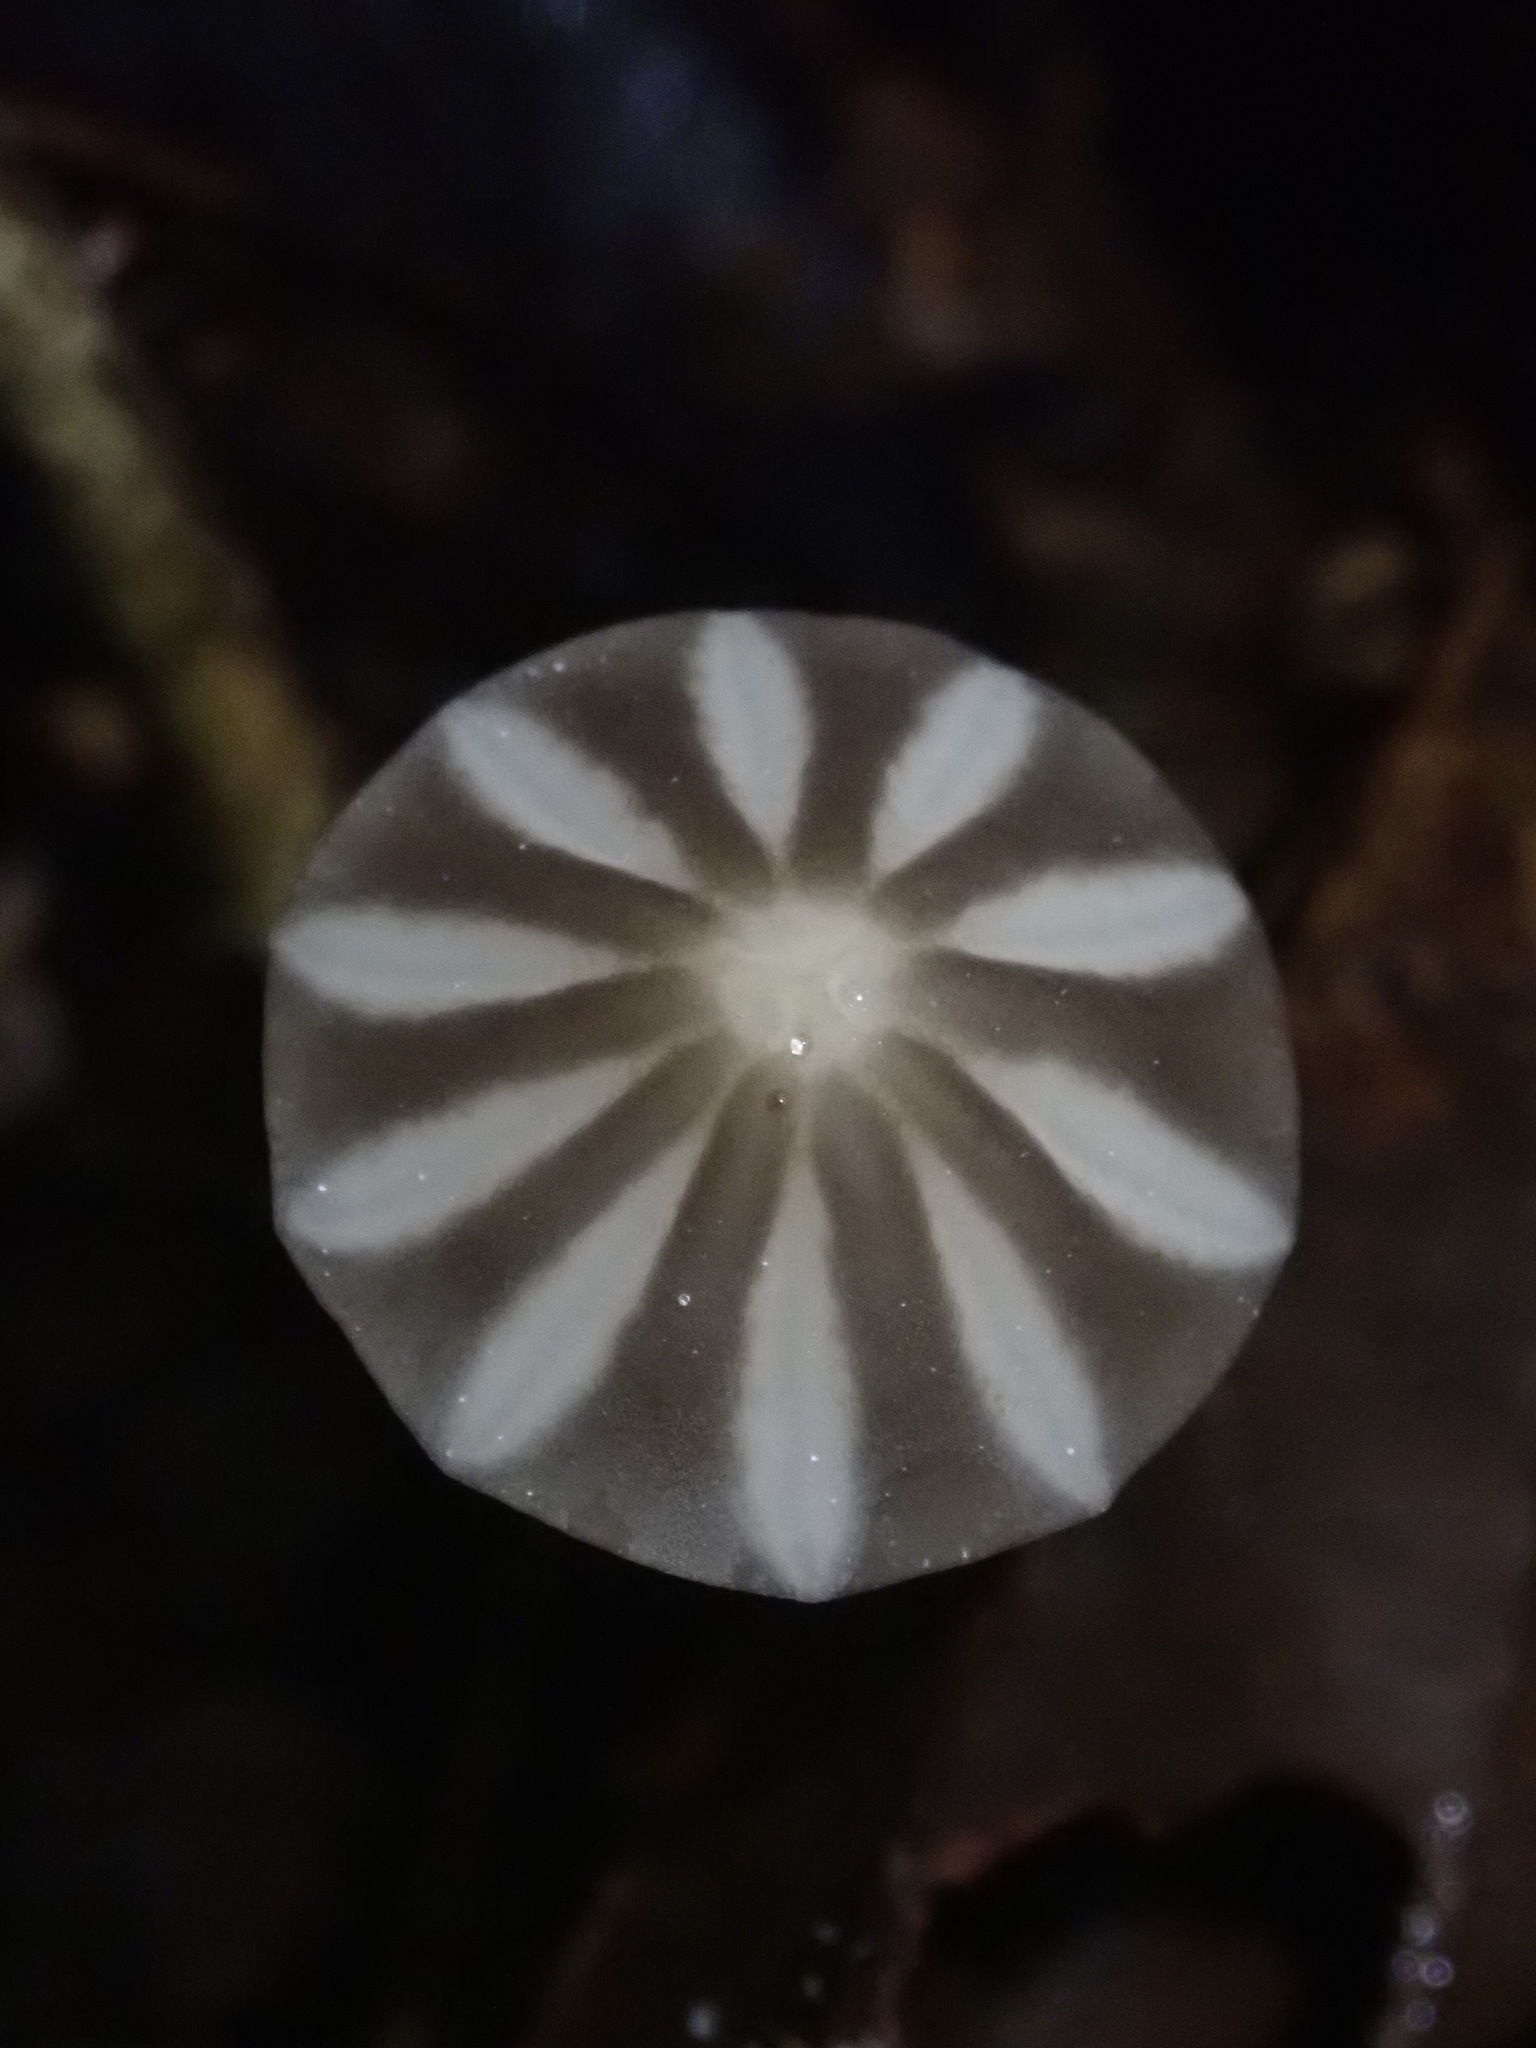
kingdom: Fungi
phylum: Basidiomycota
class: Agaricomycetes
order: Agaricales
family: Marasmiaceae
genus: Marasmius
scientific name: Marasmius griseoradiatus
